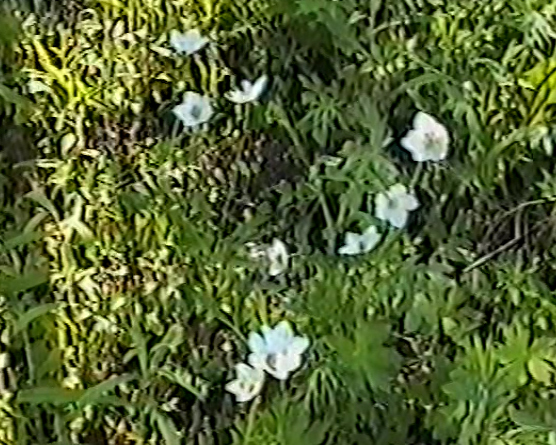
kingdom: Plantae
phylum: Tracheophyta
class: Magnoliopsida
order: Ranunculales
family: Ranunculaceae
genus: Anemone
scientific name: Anemone sylvestris
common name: Snowdrop anemone
